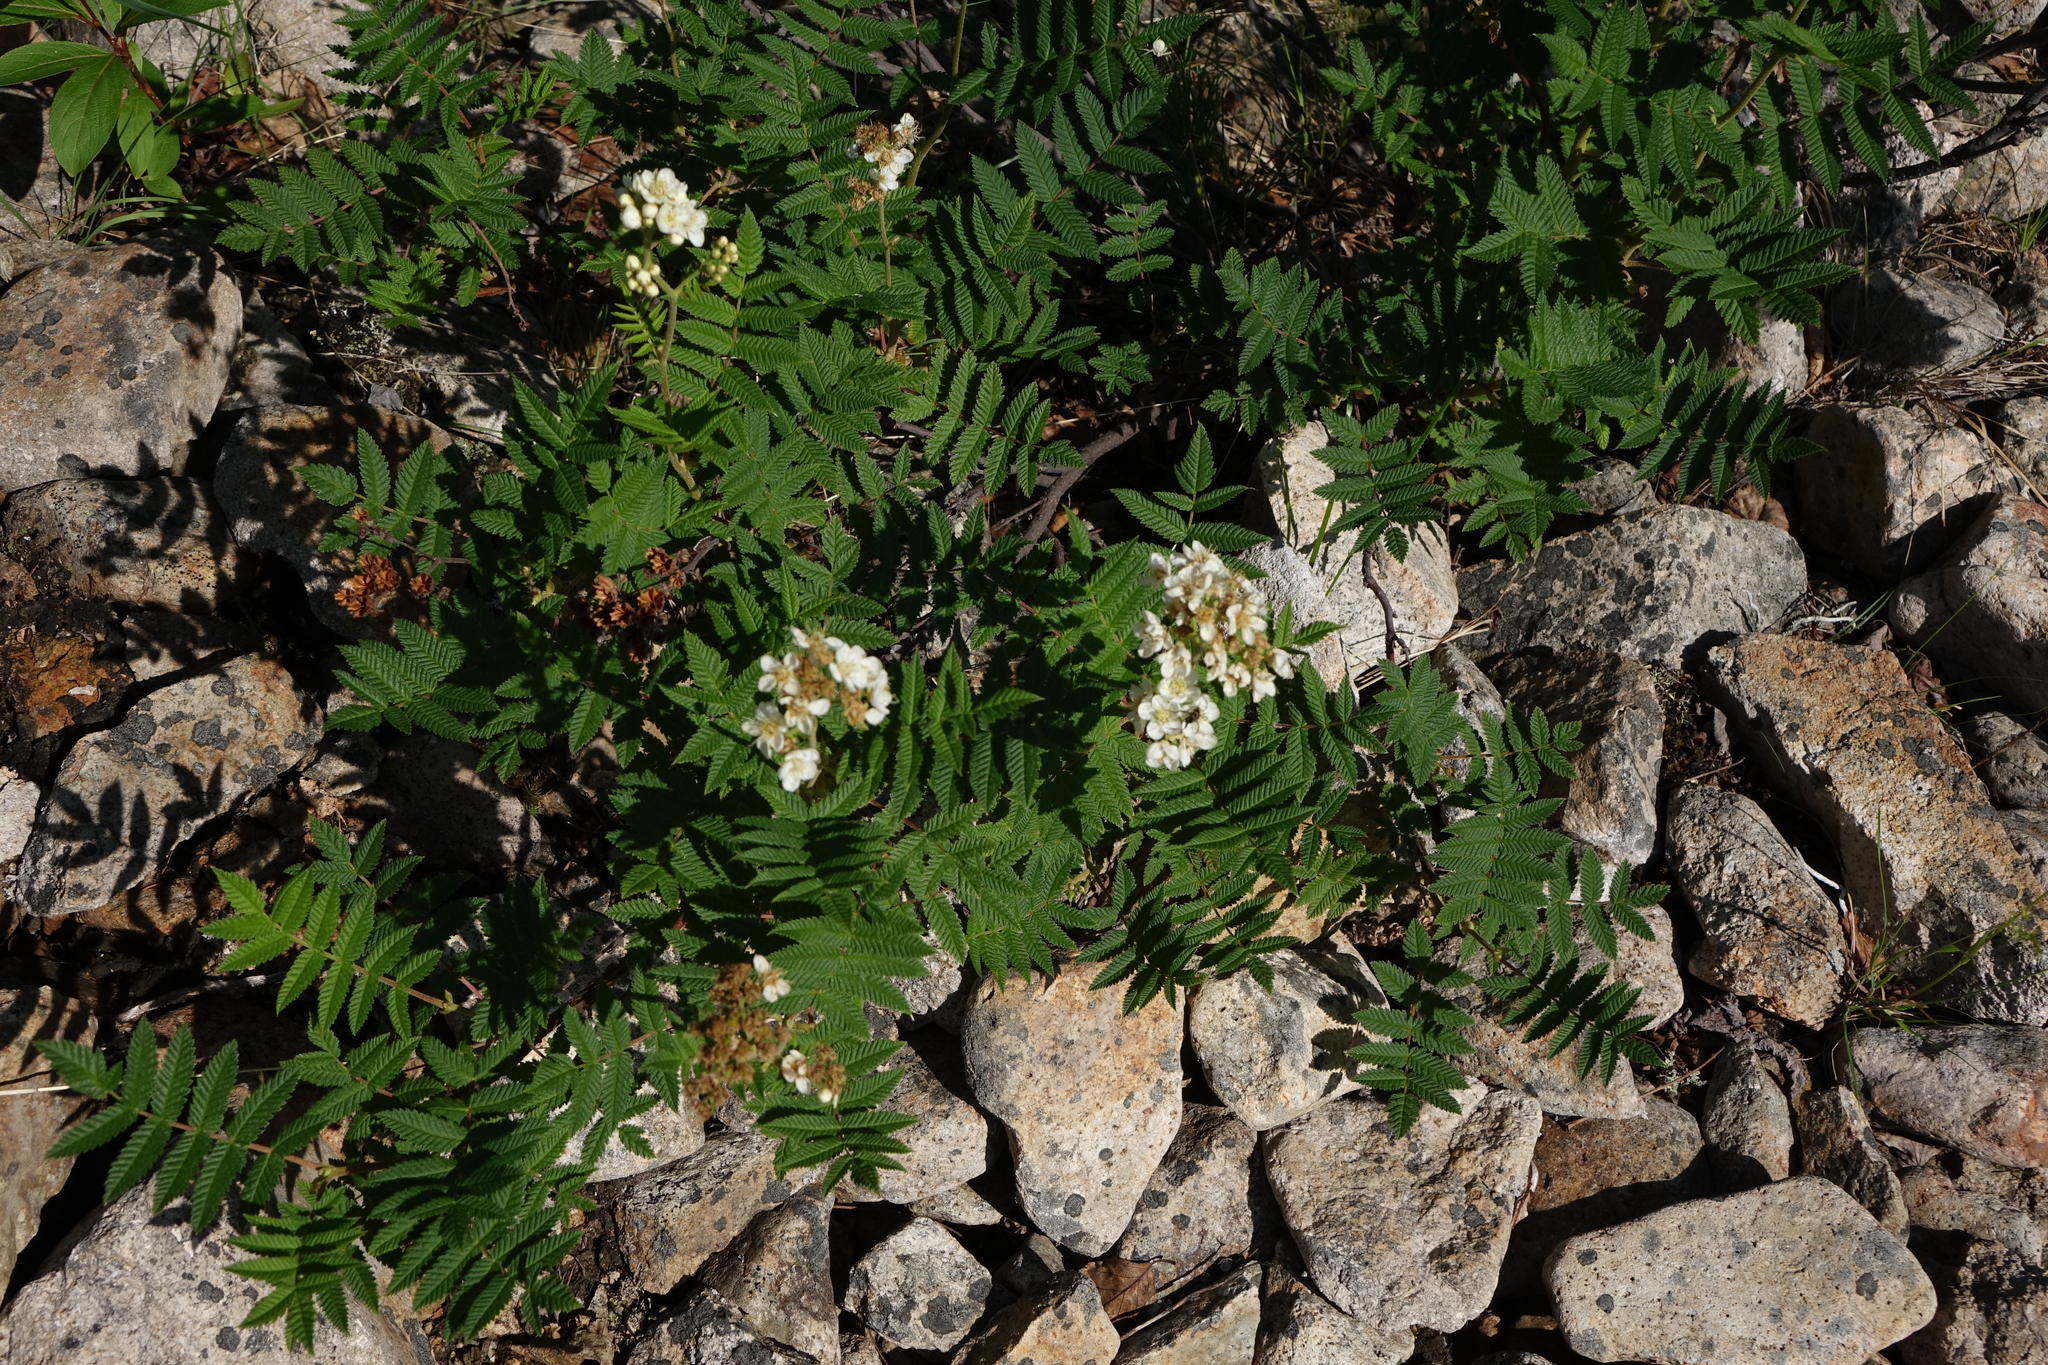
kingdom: Plantae
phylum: Tracheophyta
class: Magnoliopsida
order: Rosales
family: Rosaceae
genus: Sorbaria
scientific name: Sorbaria pallasii
